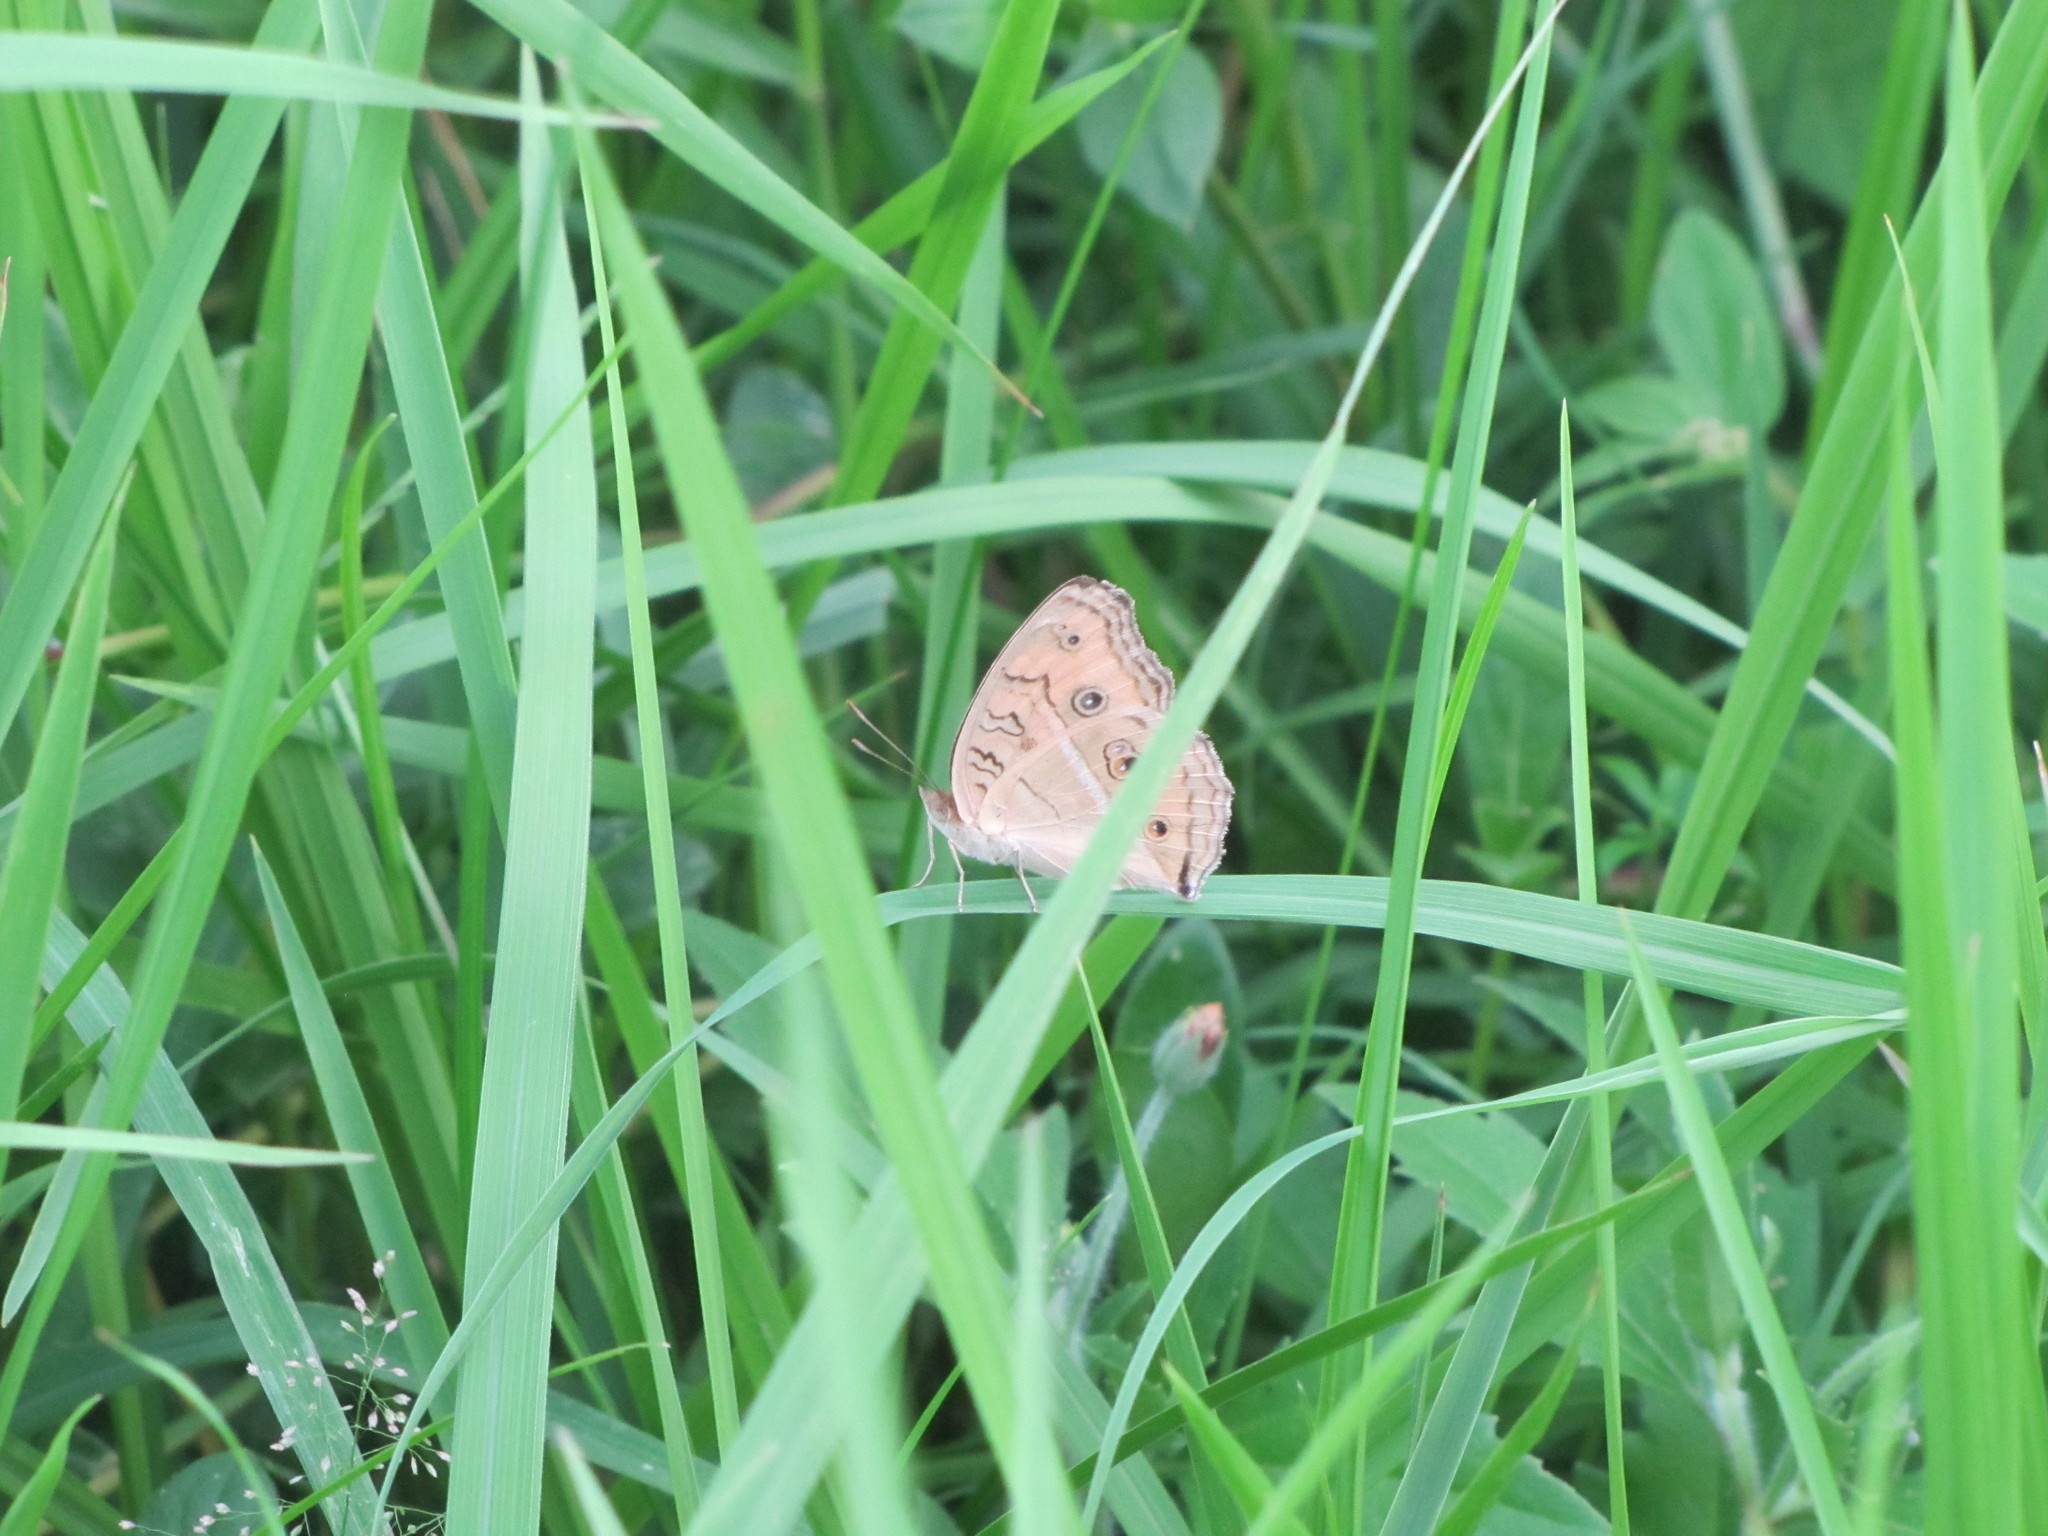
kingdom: Animalia
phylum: Arthropoda
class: Insecta
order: Lepidoptera
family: Nymphalidae
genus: Junonia
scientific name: Junonia almana
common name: Peacock pansy
